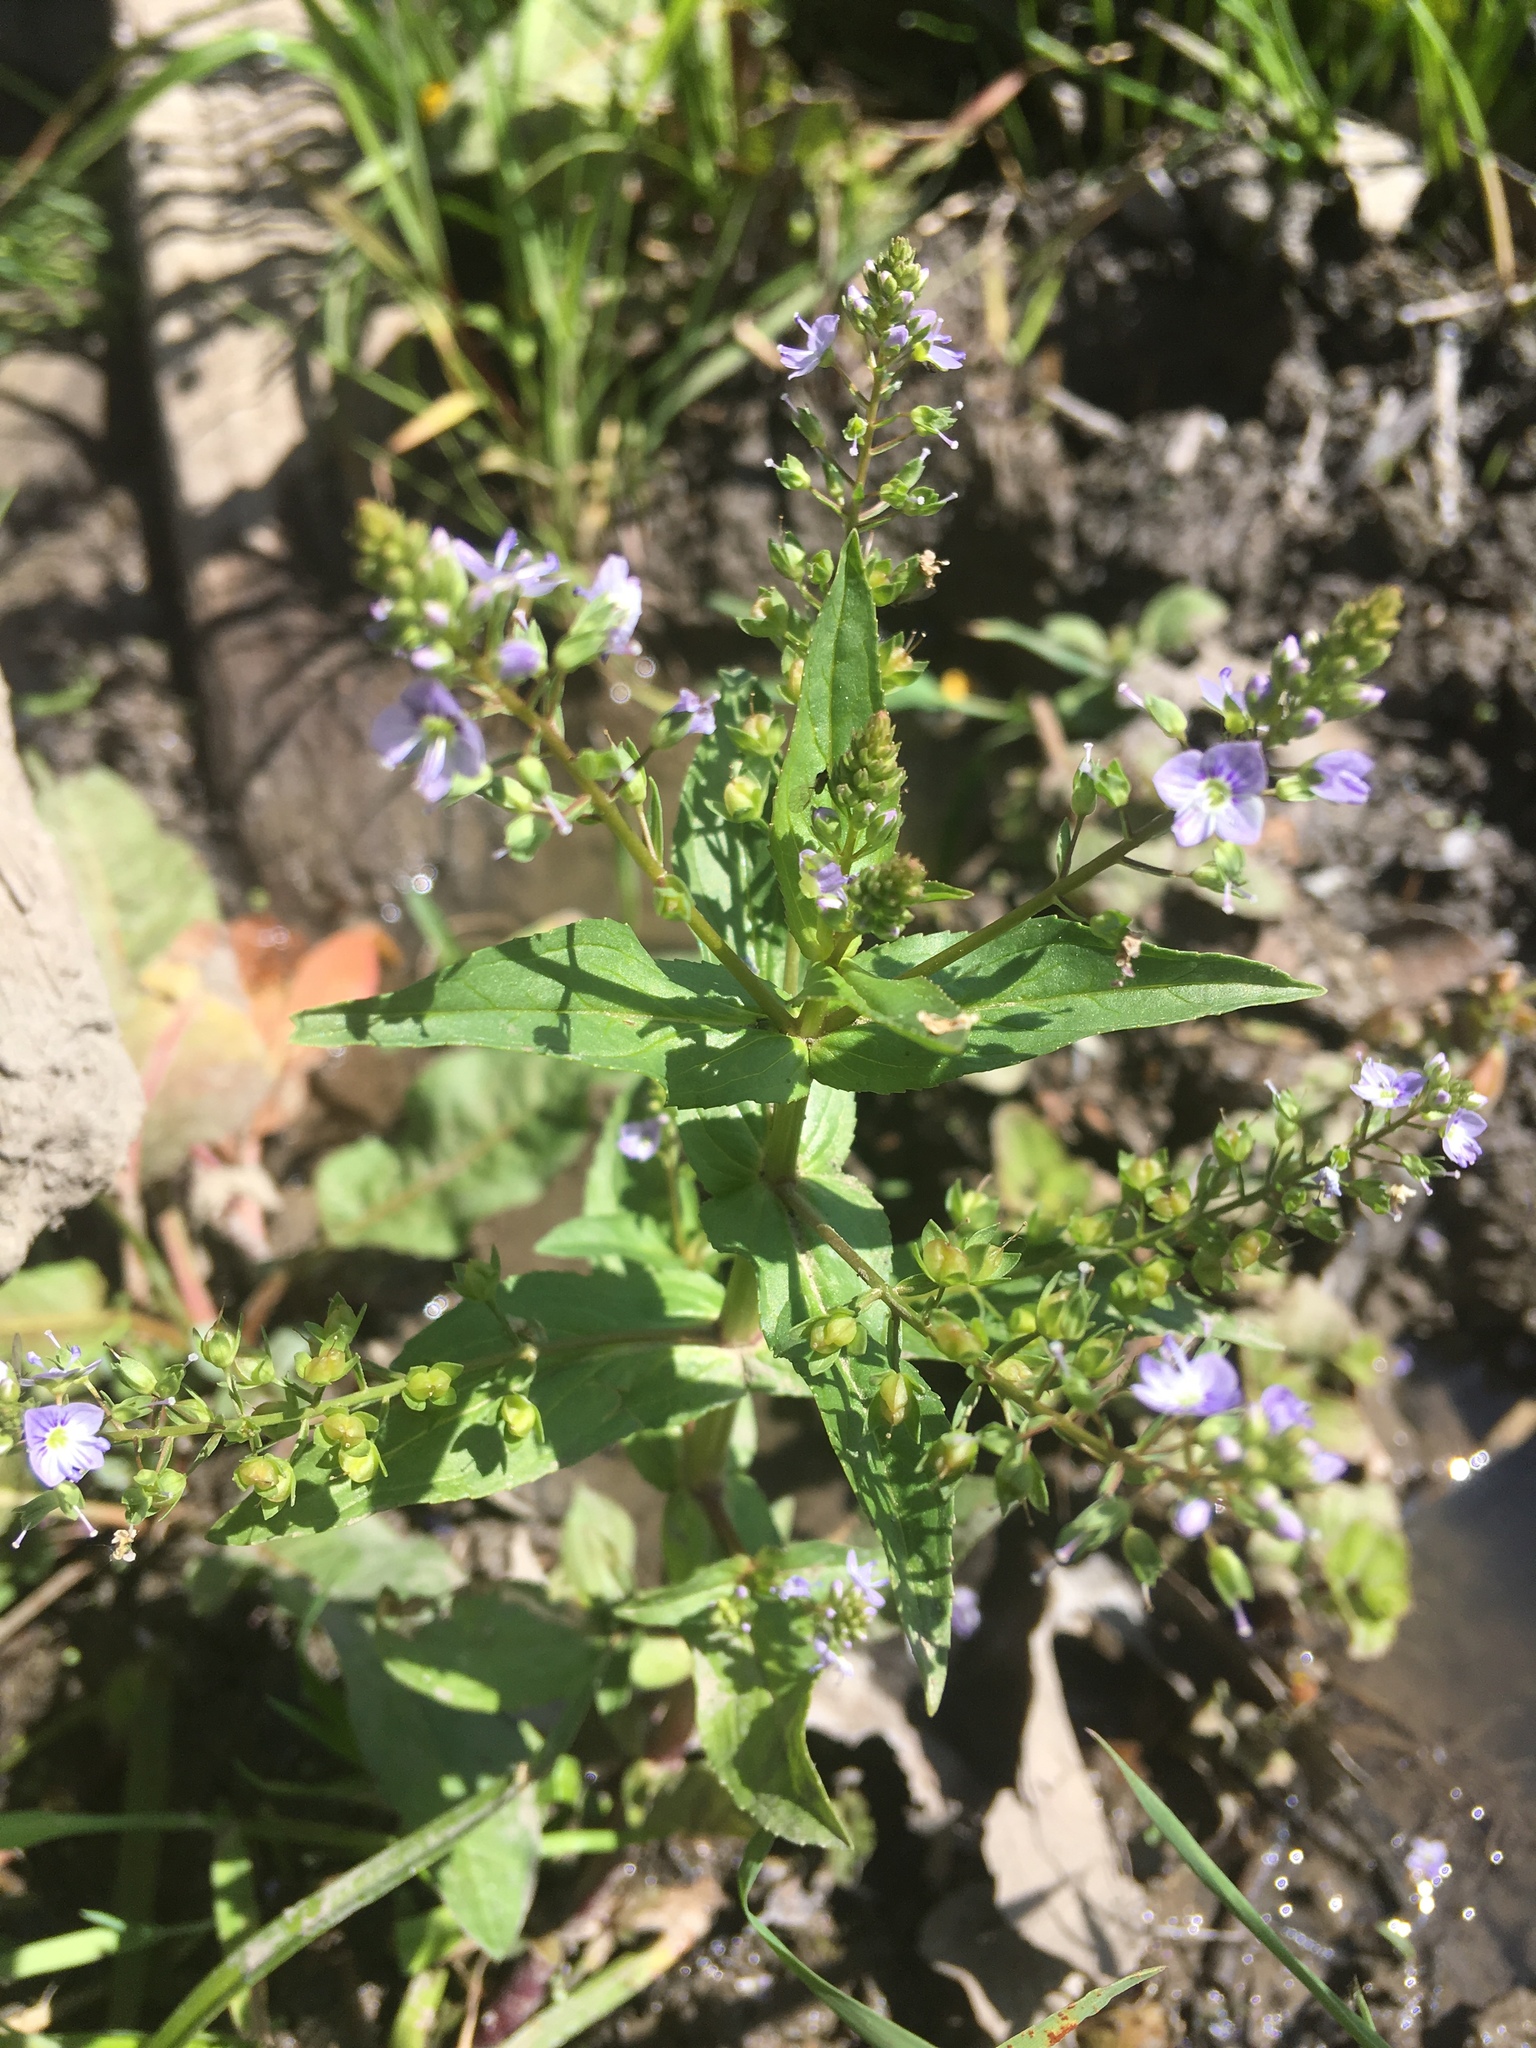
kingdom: Plantae
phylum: Tracheophyta
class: Magnoliopsida
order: Lamiales
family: Plantaginaceae
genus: Veronica
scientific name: Veronica anagallis-aquatica
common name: Water speedwell
